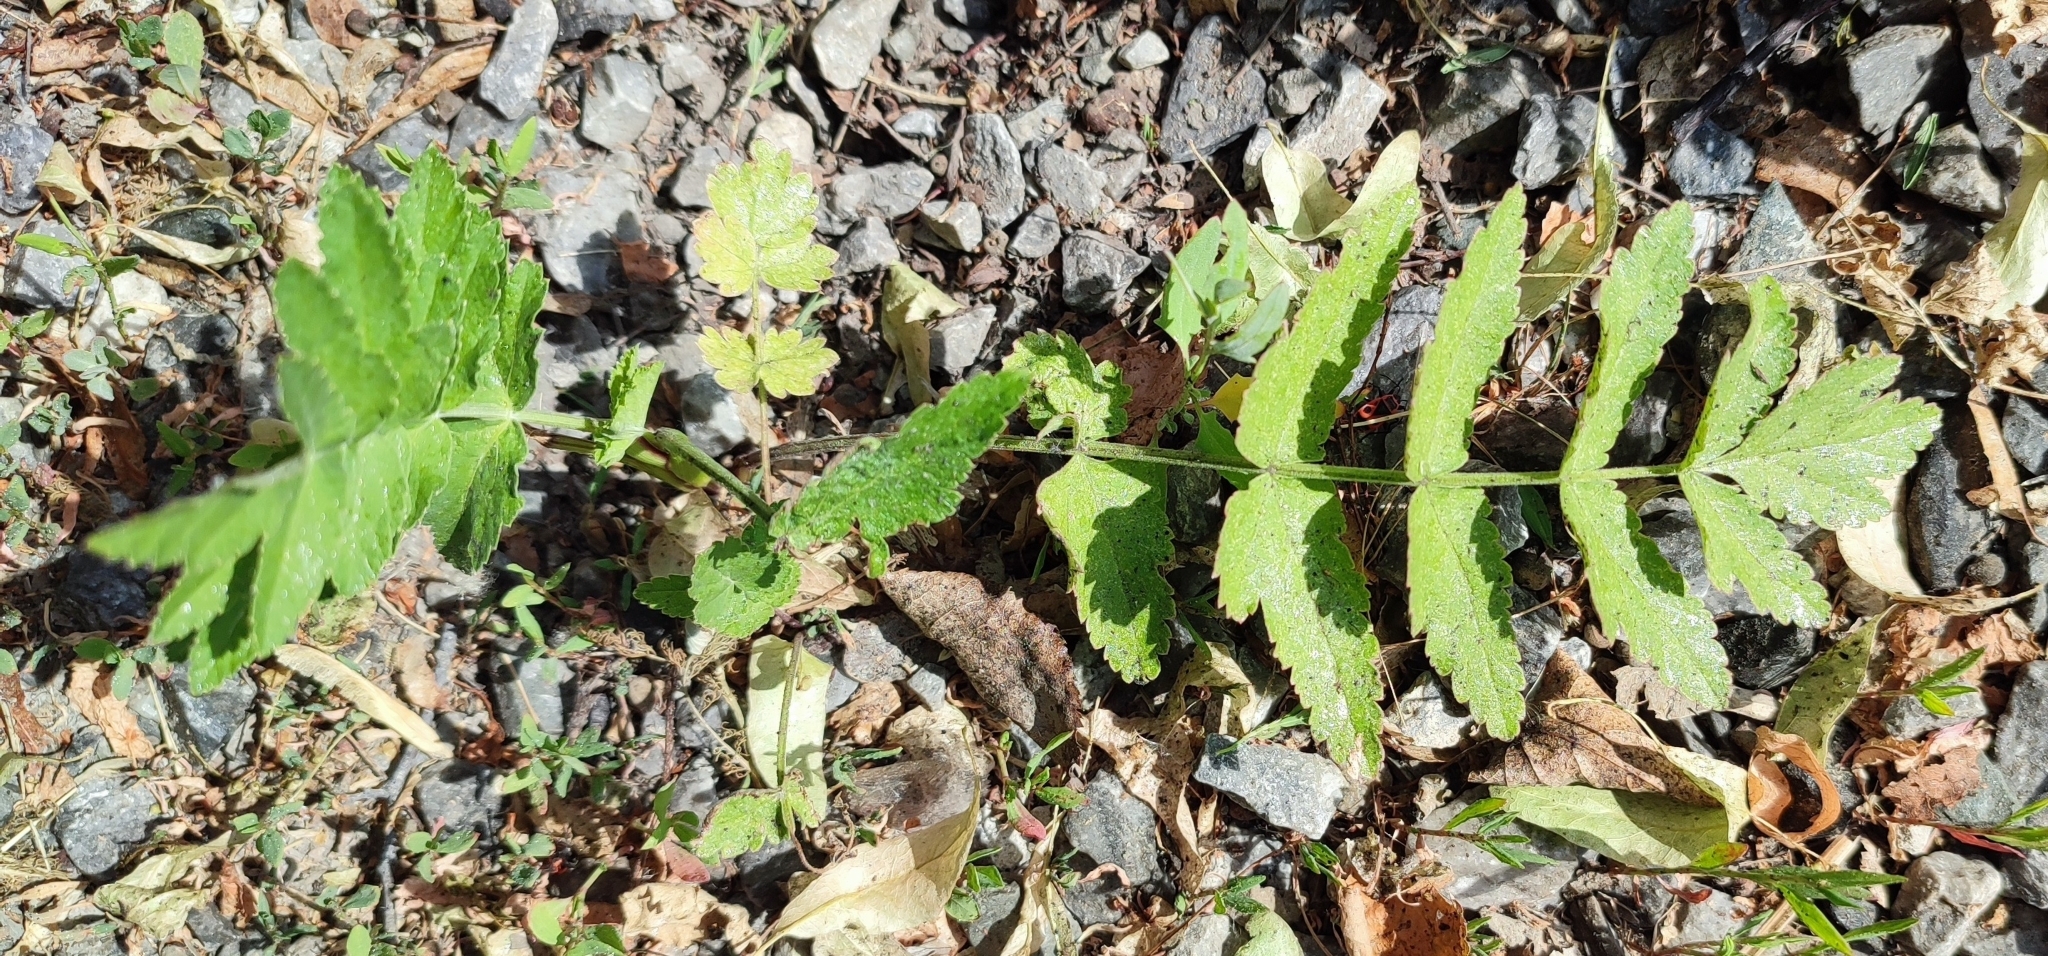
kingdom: Plantae
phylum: Tracheophyta
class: Magnoliopsida
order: Apiales
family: Apiaceae
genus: Pastinaca
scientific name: Pastinaca sativa
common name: Wild parsnip
